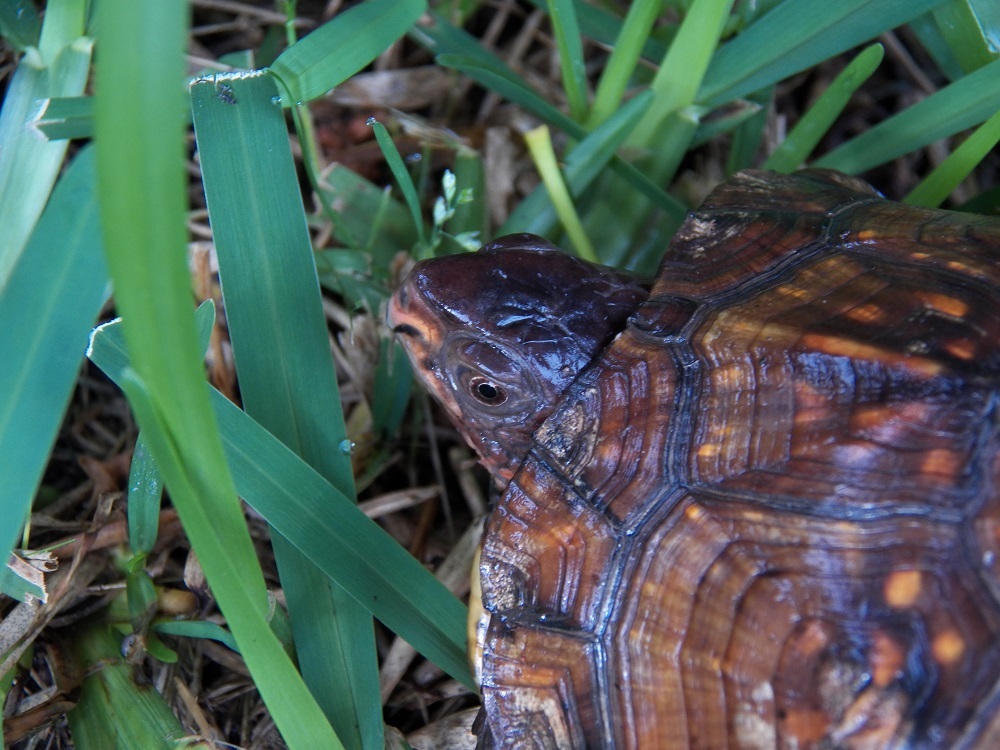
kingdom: Animalia
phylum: Chordata
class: Testudines
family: Emydidae
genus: Terrapene
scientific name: Terrapene carolina
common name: Common box turtle
